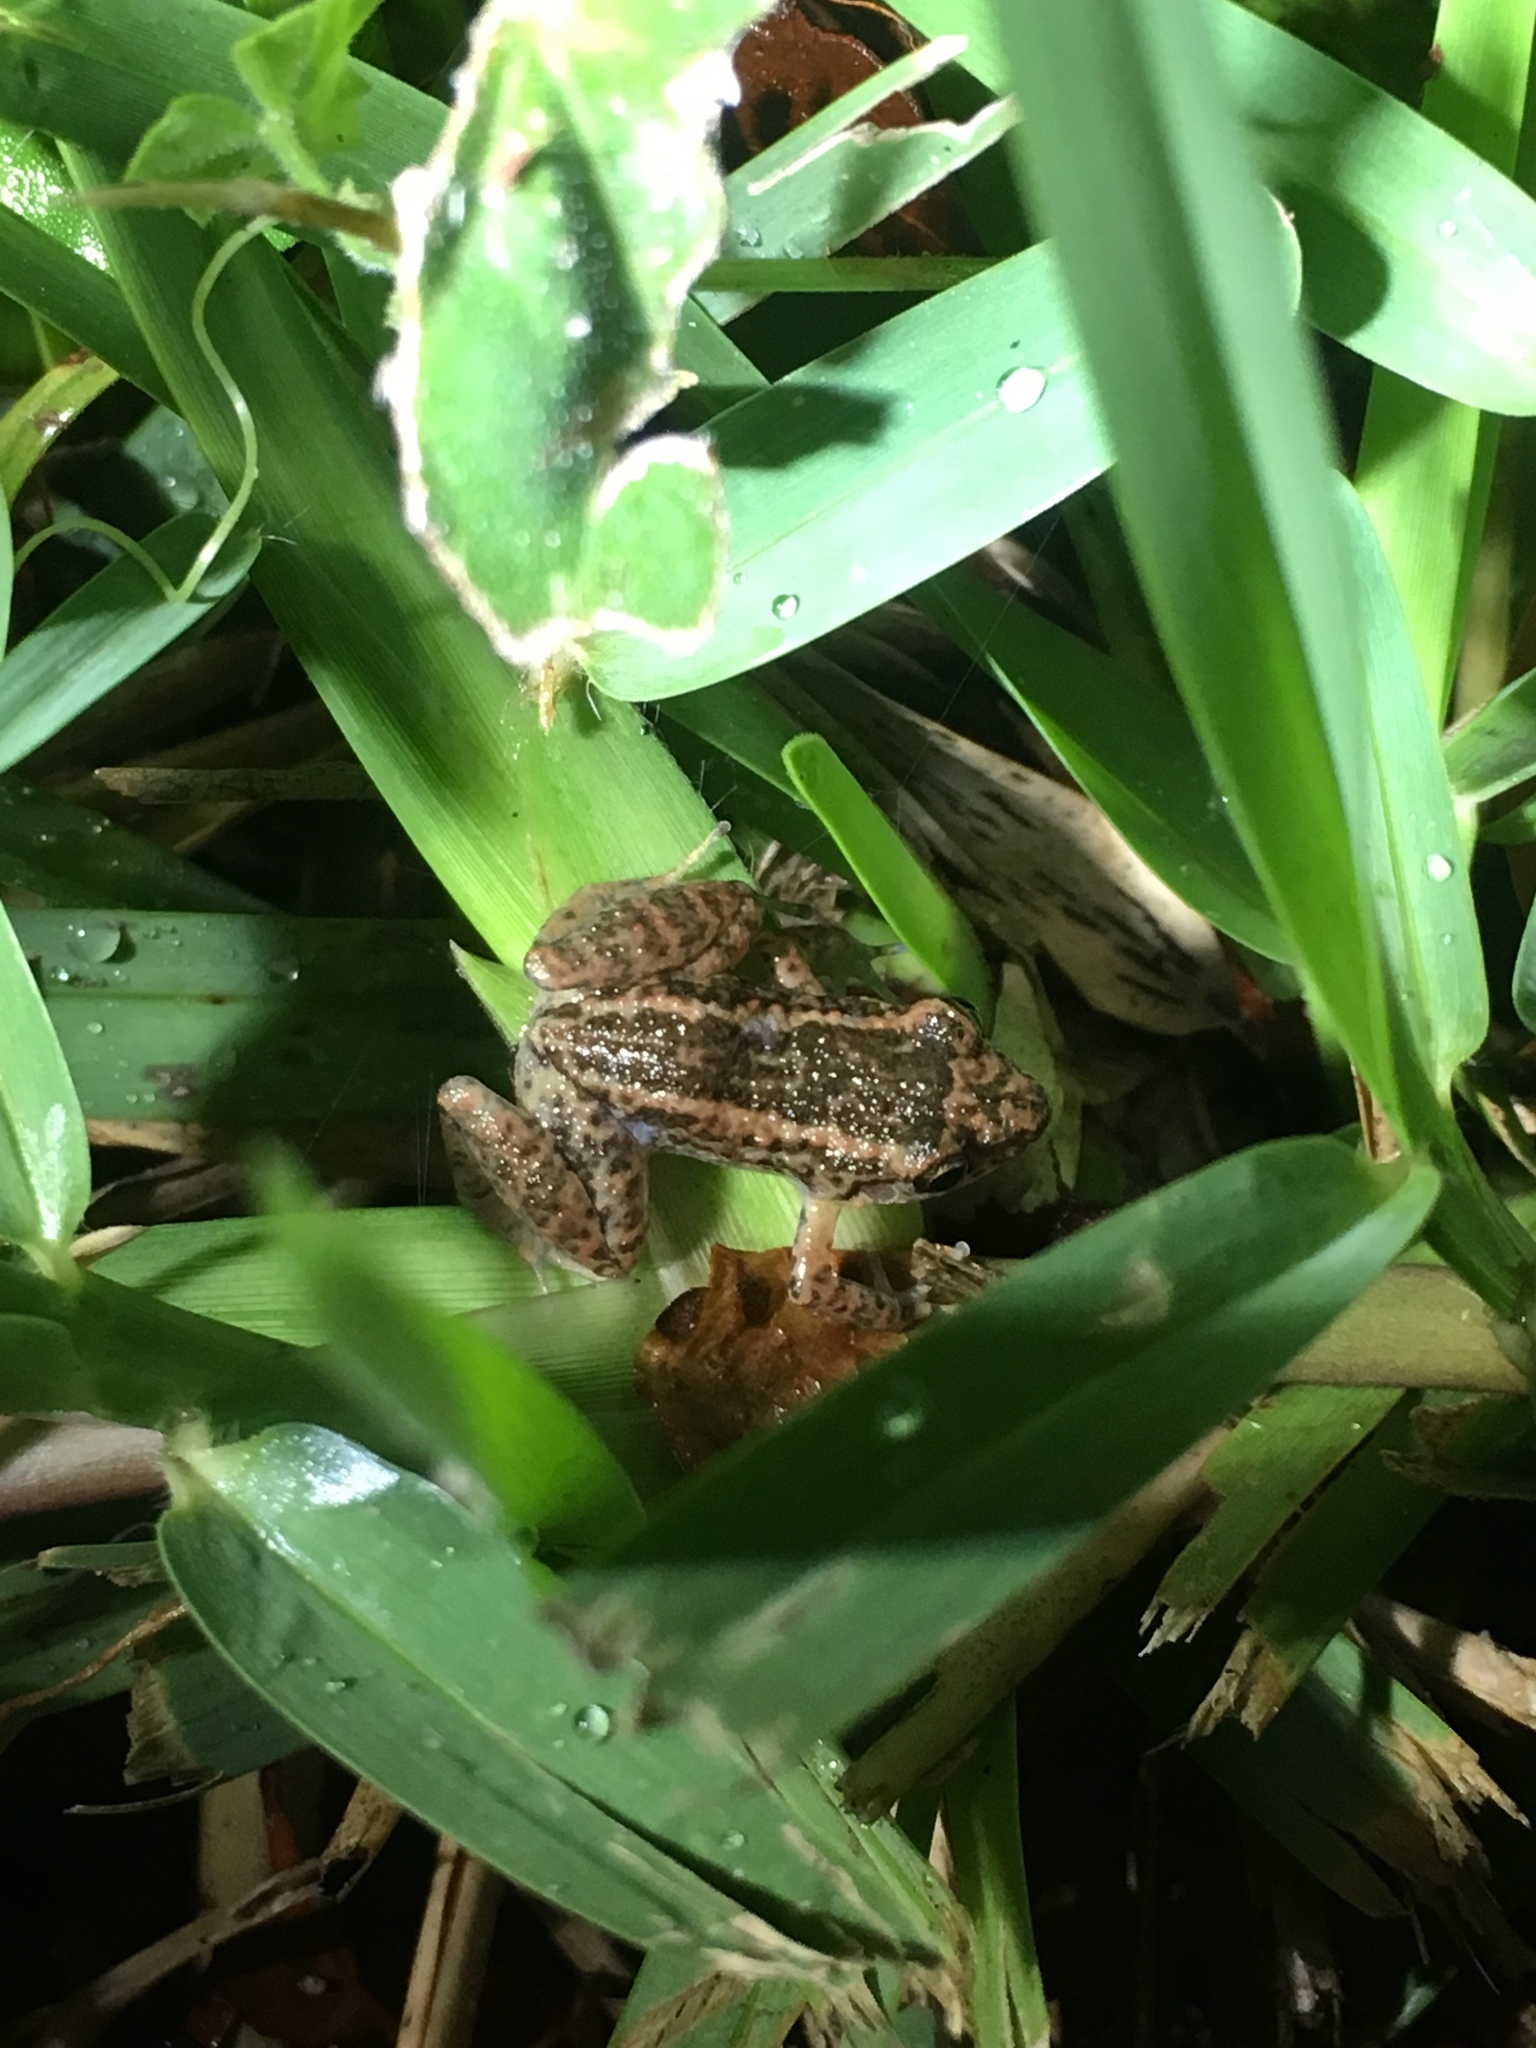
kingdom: Animalia
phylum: Chordata
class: Amphibia
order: Anura
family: Eleutherodactylidae
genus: Eleutherodactylus
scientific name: Eleutherodactylus planirostris
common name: Greenhouse frog
